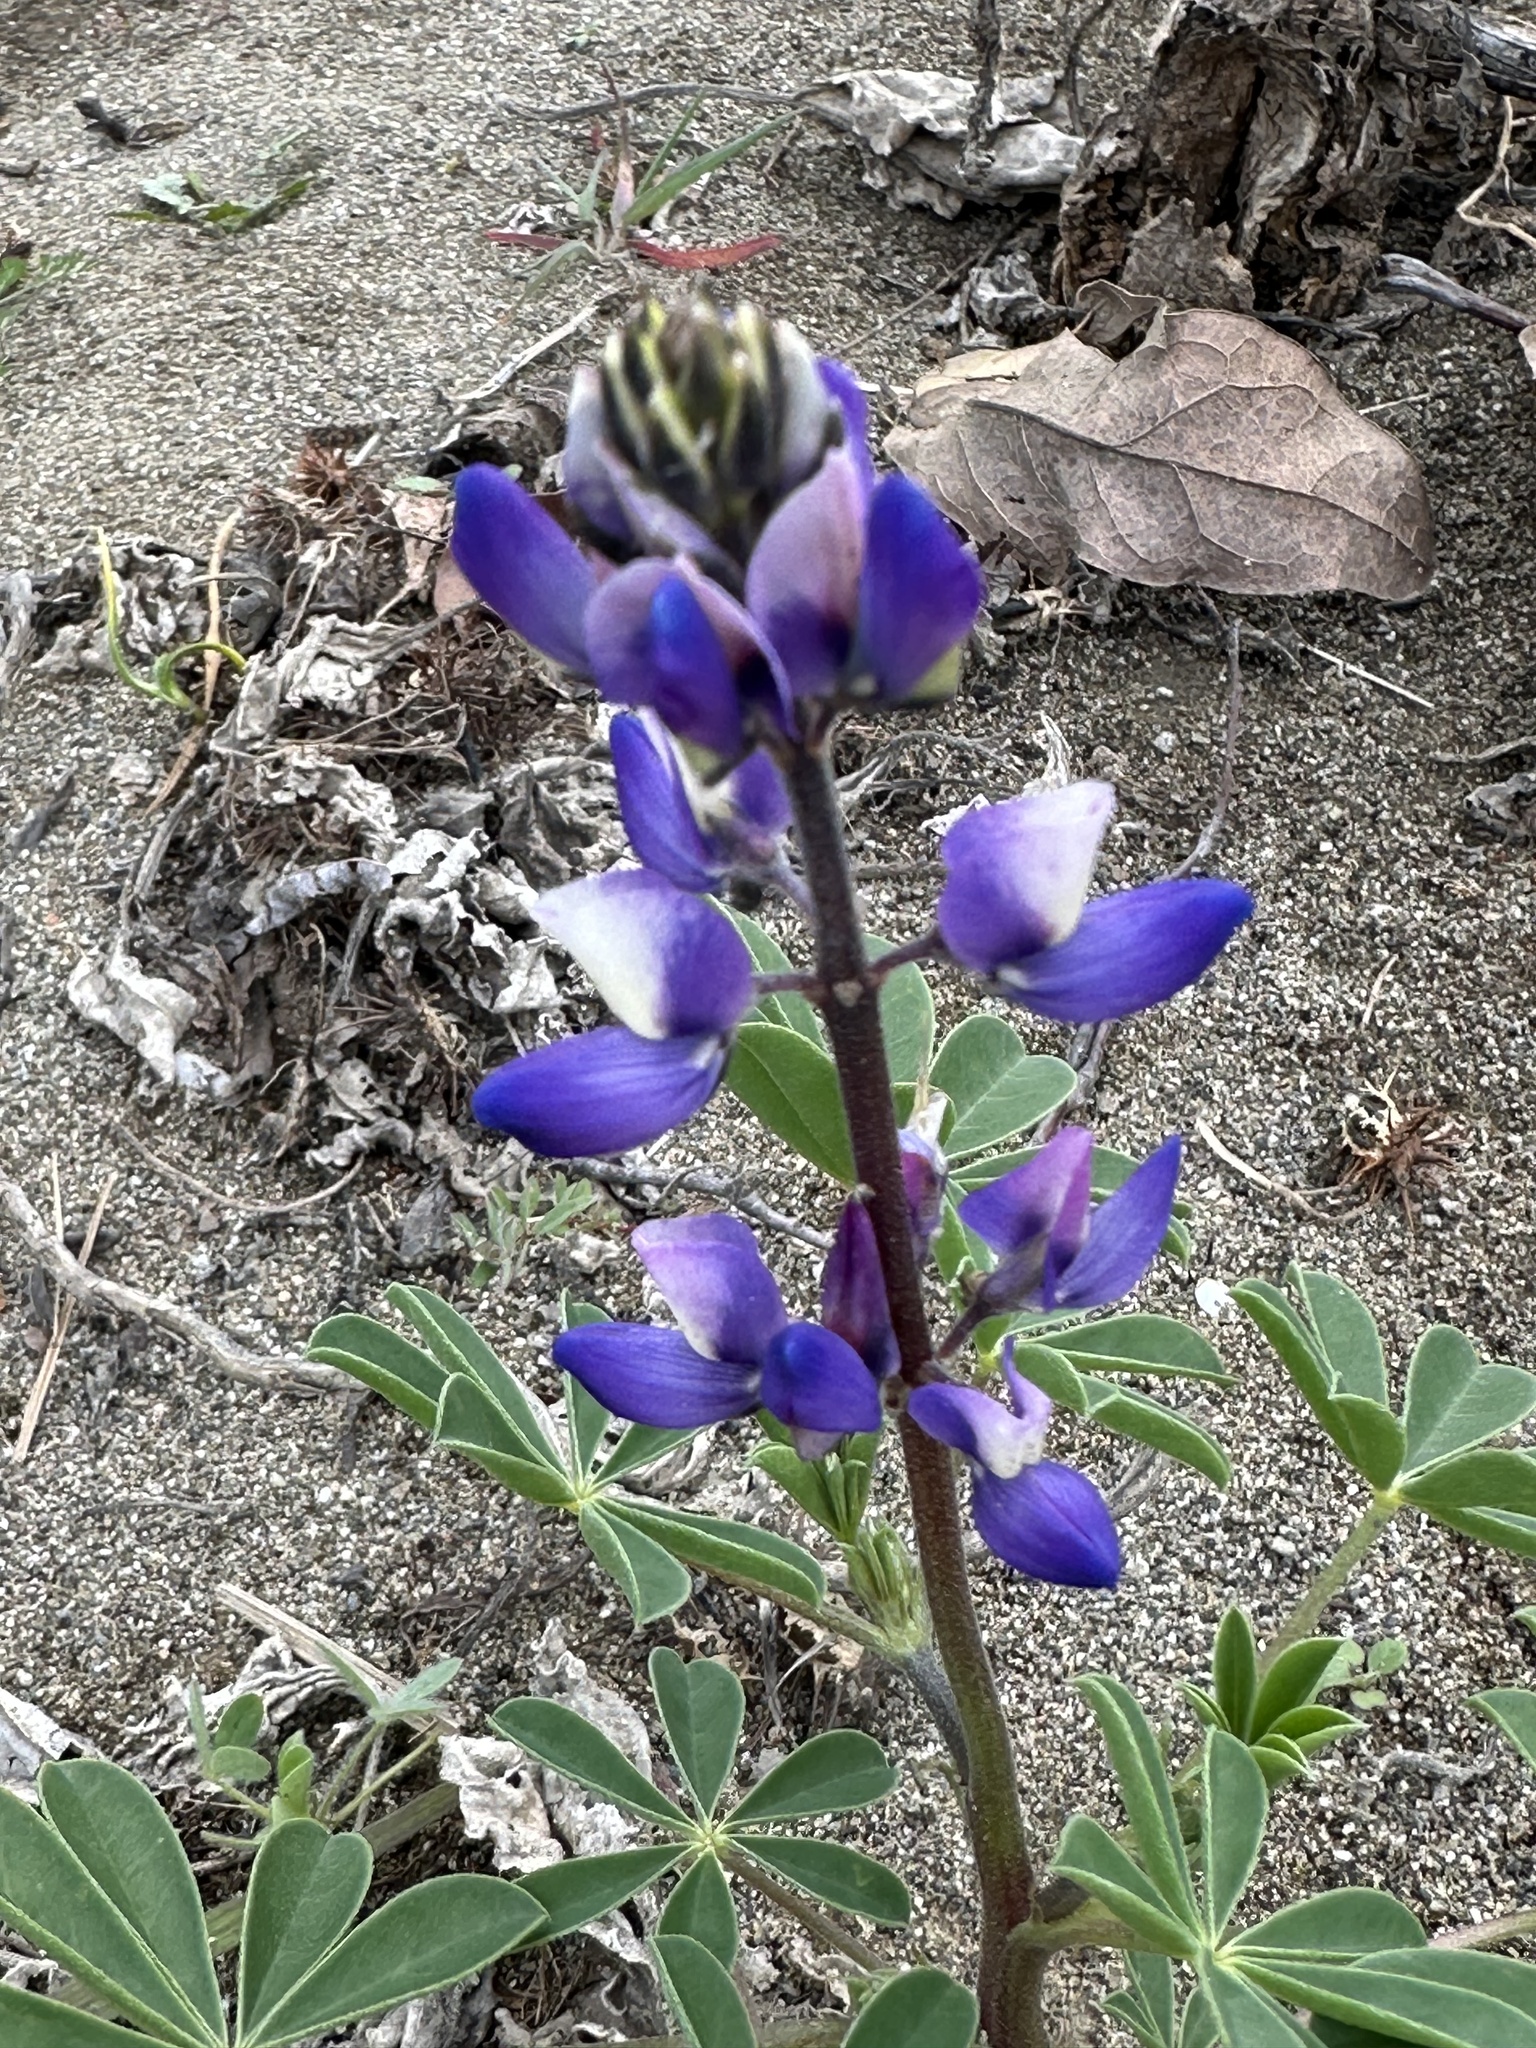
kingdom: Plantae
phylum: Tracheophyta
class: Magnoliopsida
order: Fabales
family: Fabaceae
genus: Lupinus
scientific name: Lupinus succulentus
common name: Arroyo lupine
